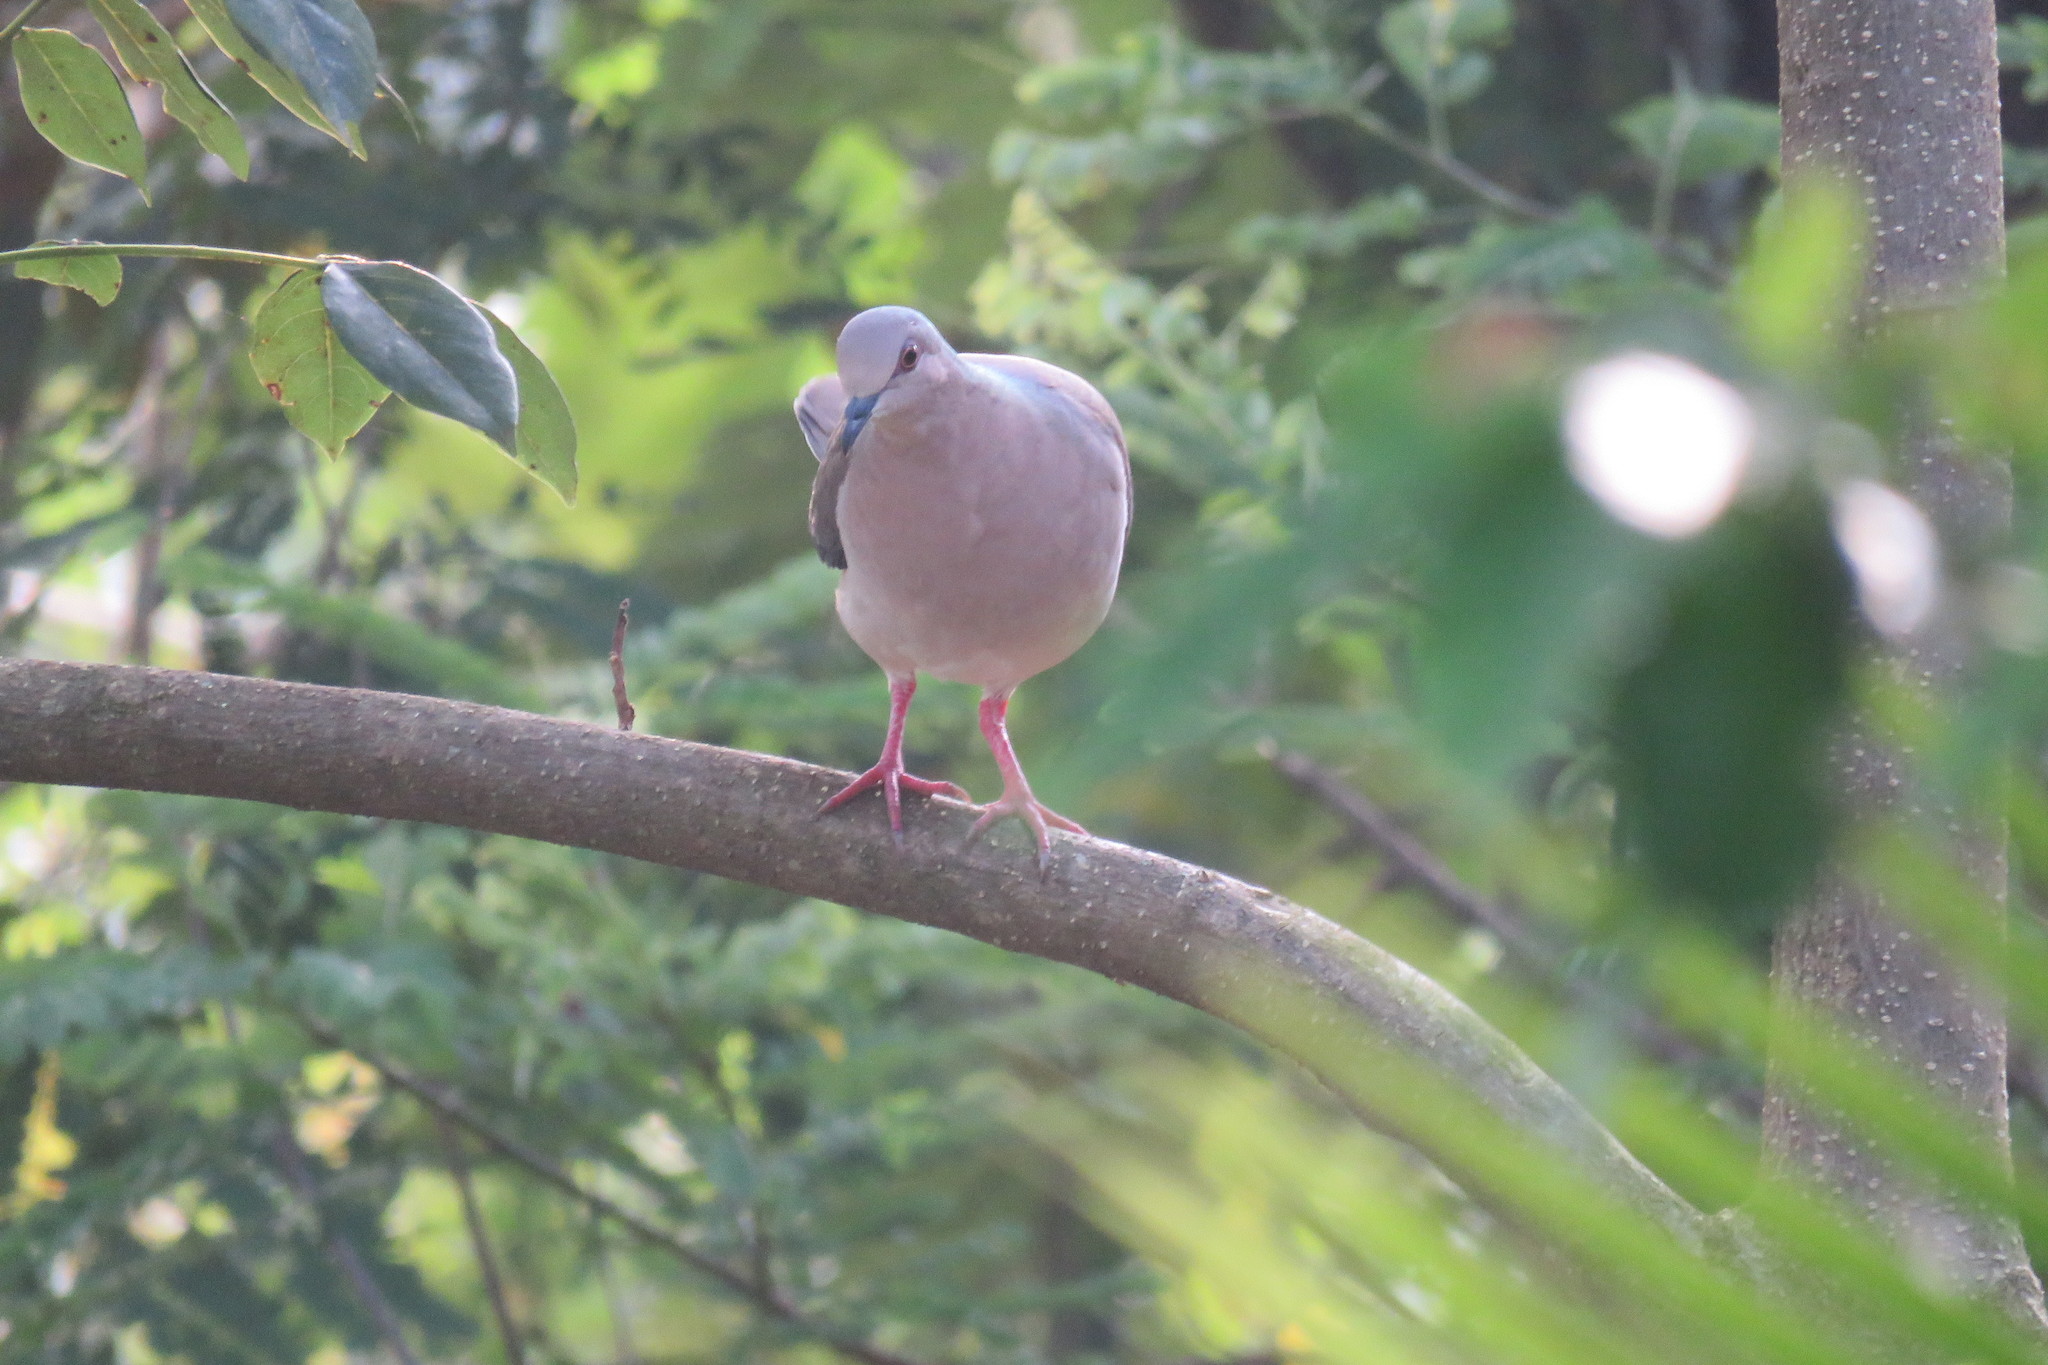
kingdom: Animalia
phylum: Chordata
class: Aves
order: Columbiformes
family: Columbidae
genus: Leptotila
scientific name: Leptotila verreauxi
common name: White-tipped dove
